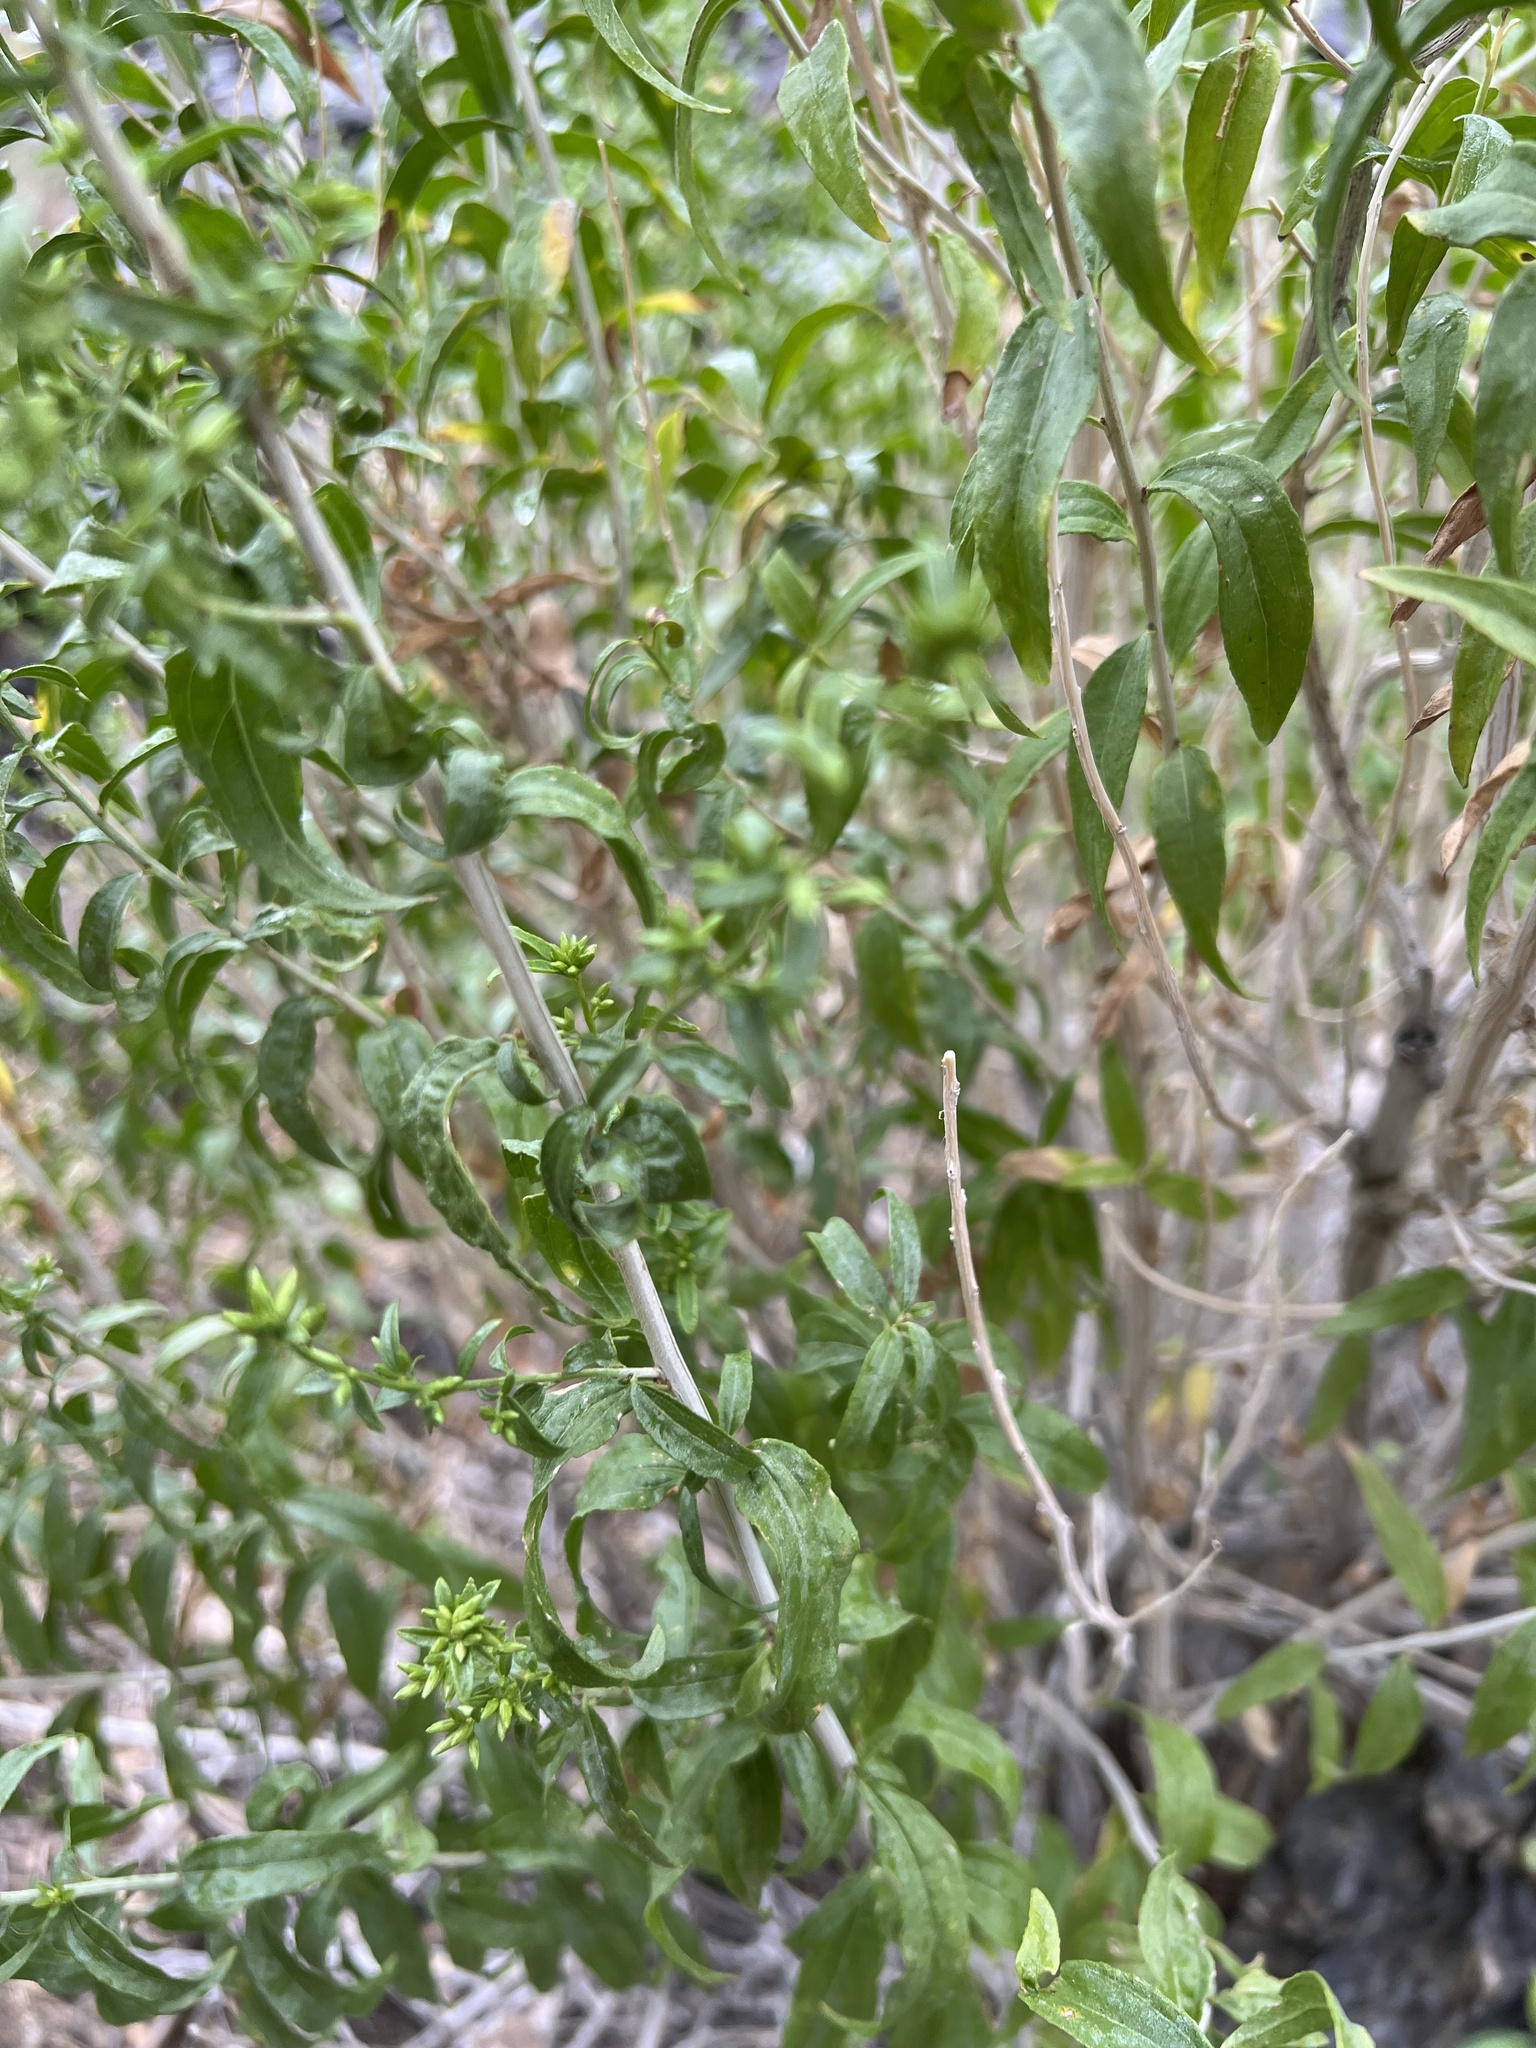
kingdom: Plantae
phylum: Tracheophyta
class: Magnoliopsida
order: Asterales
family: Asteraceae
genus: Brickellia
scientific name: Brickellia longifolia
